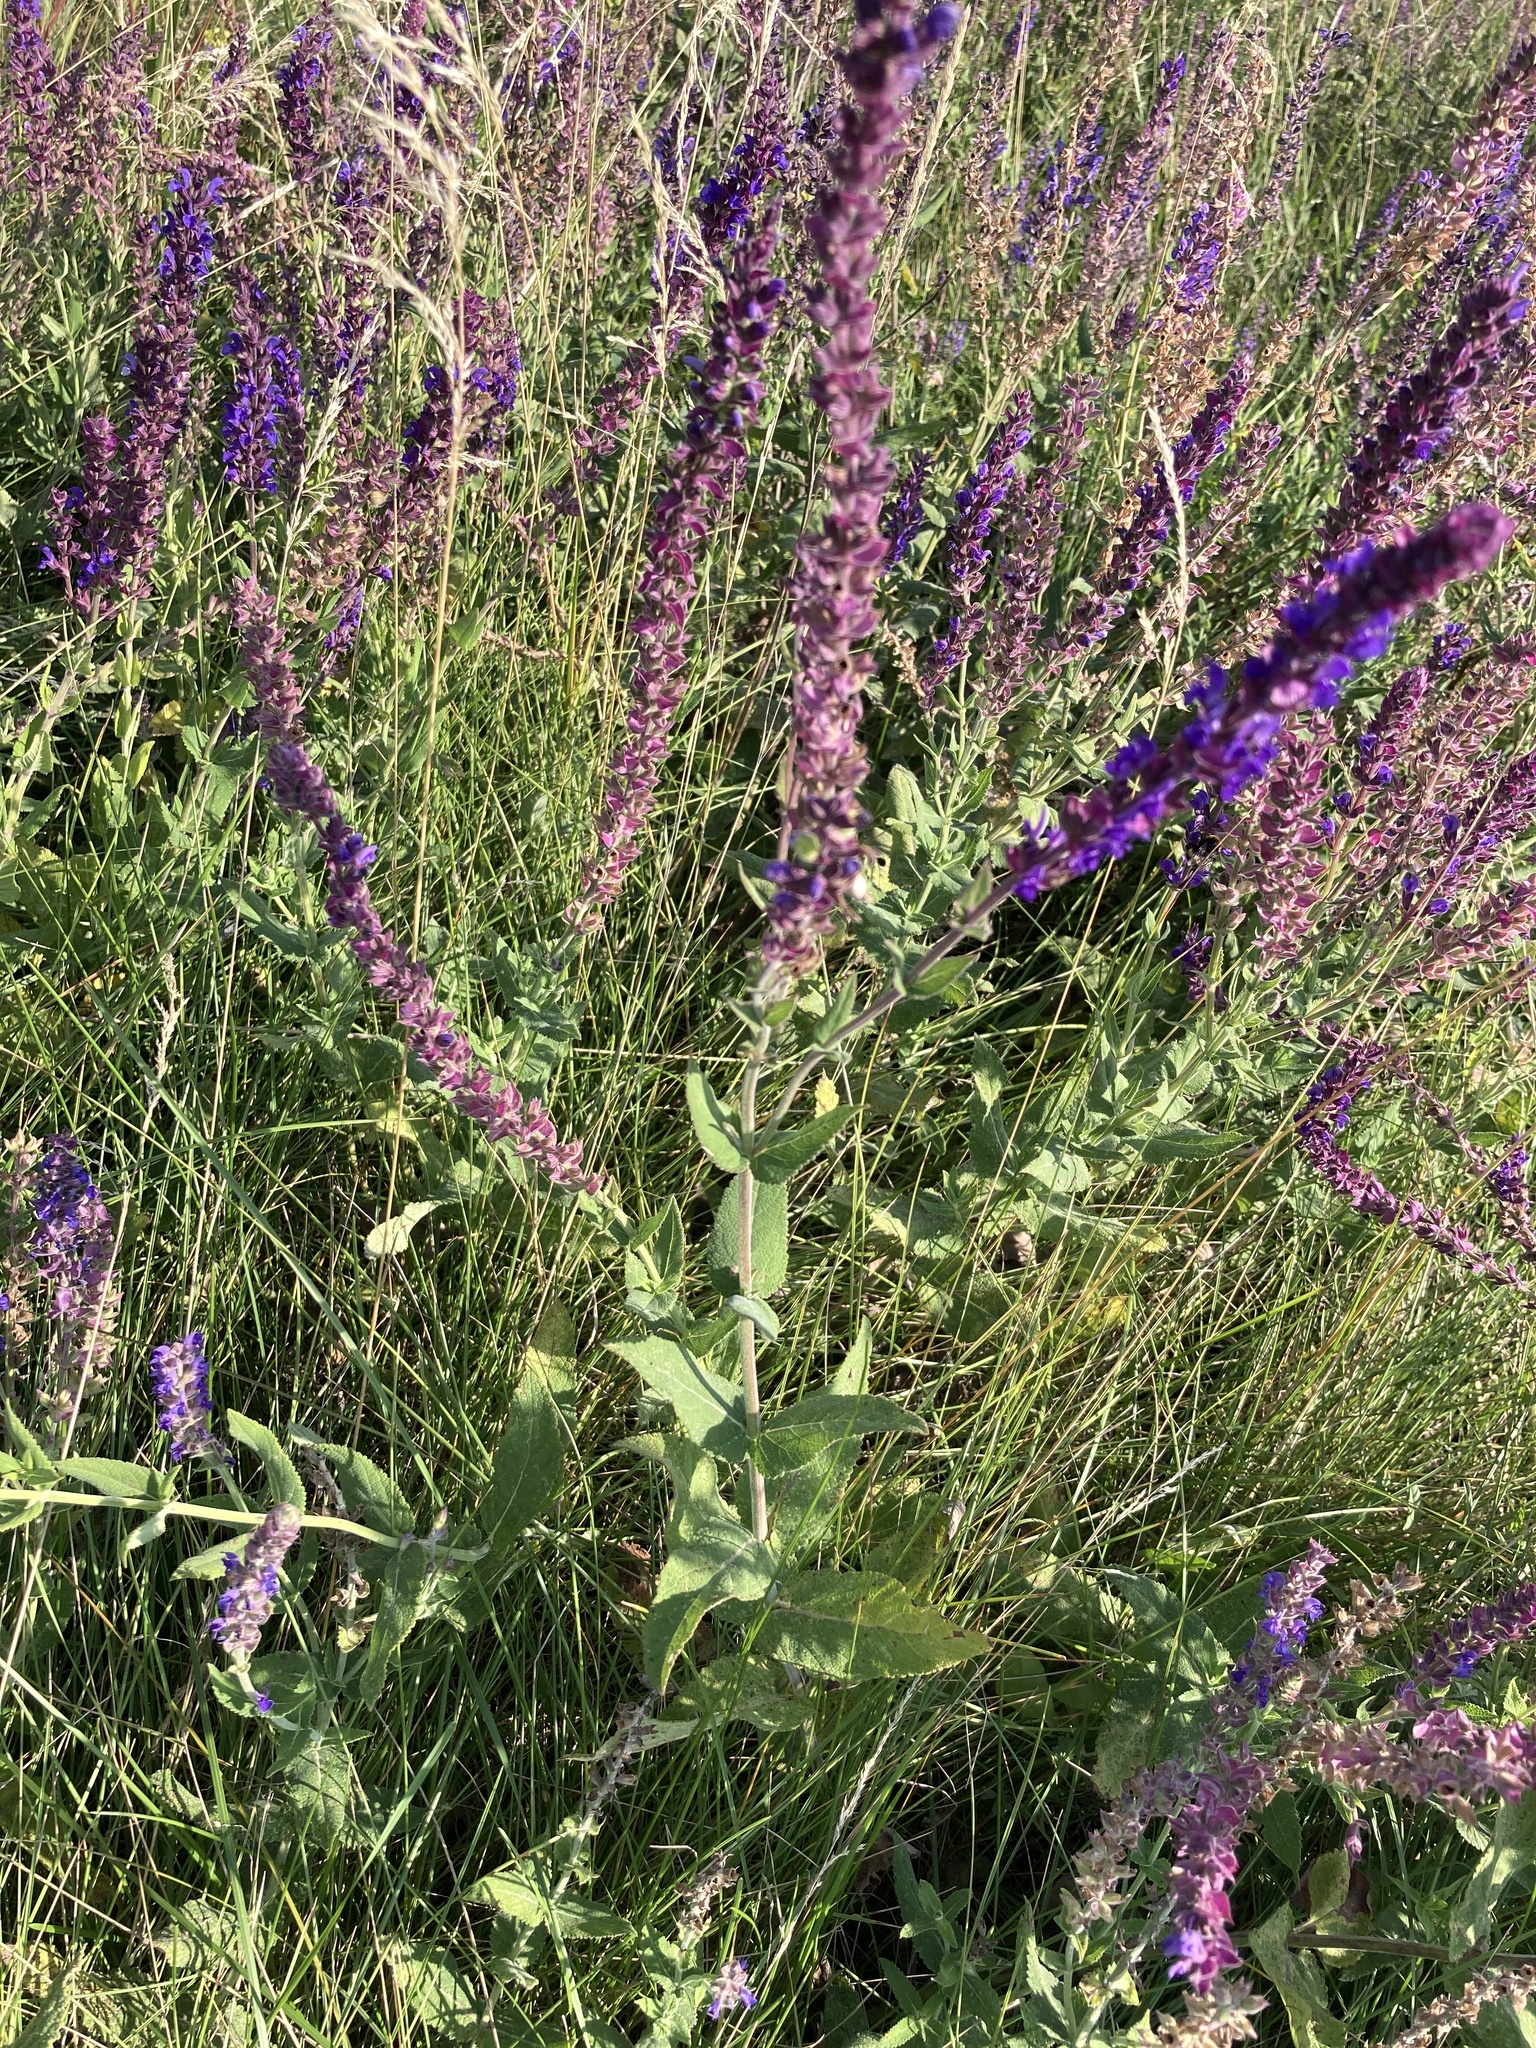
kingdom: Plantae
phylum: Tracheophyta
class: Magnoliopsida
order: Lamiales
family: Lamiaceae
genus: Salvia
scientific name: Salvia nemorosa
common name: Balkan clary
